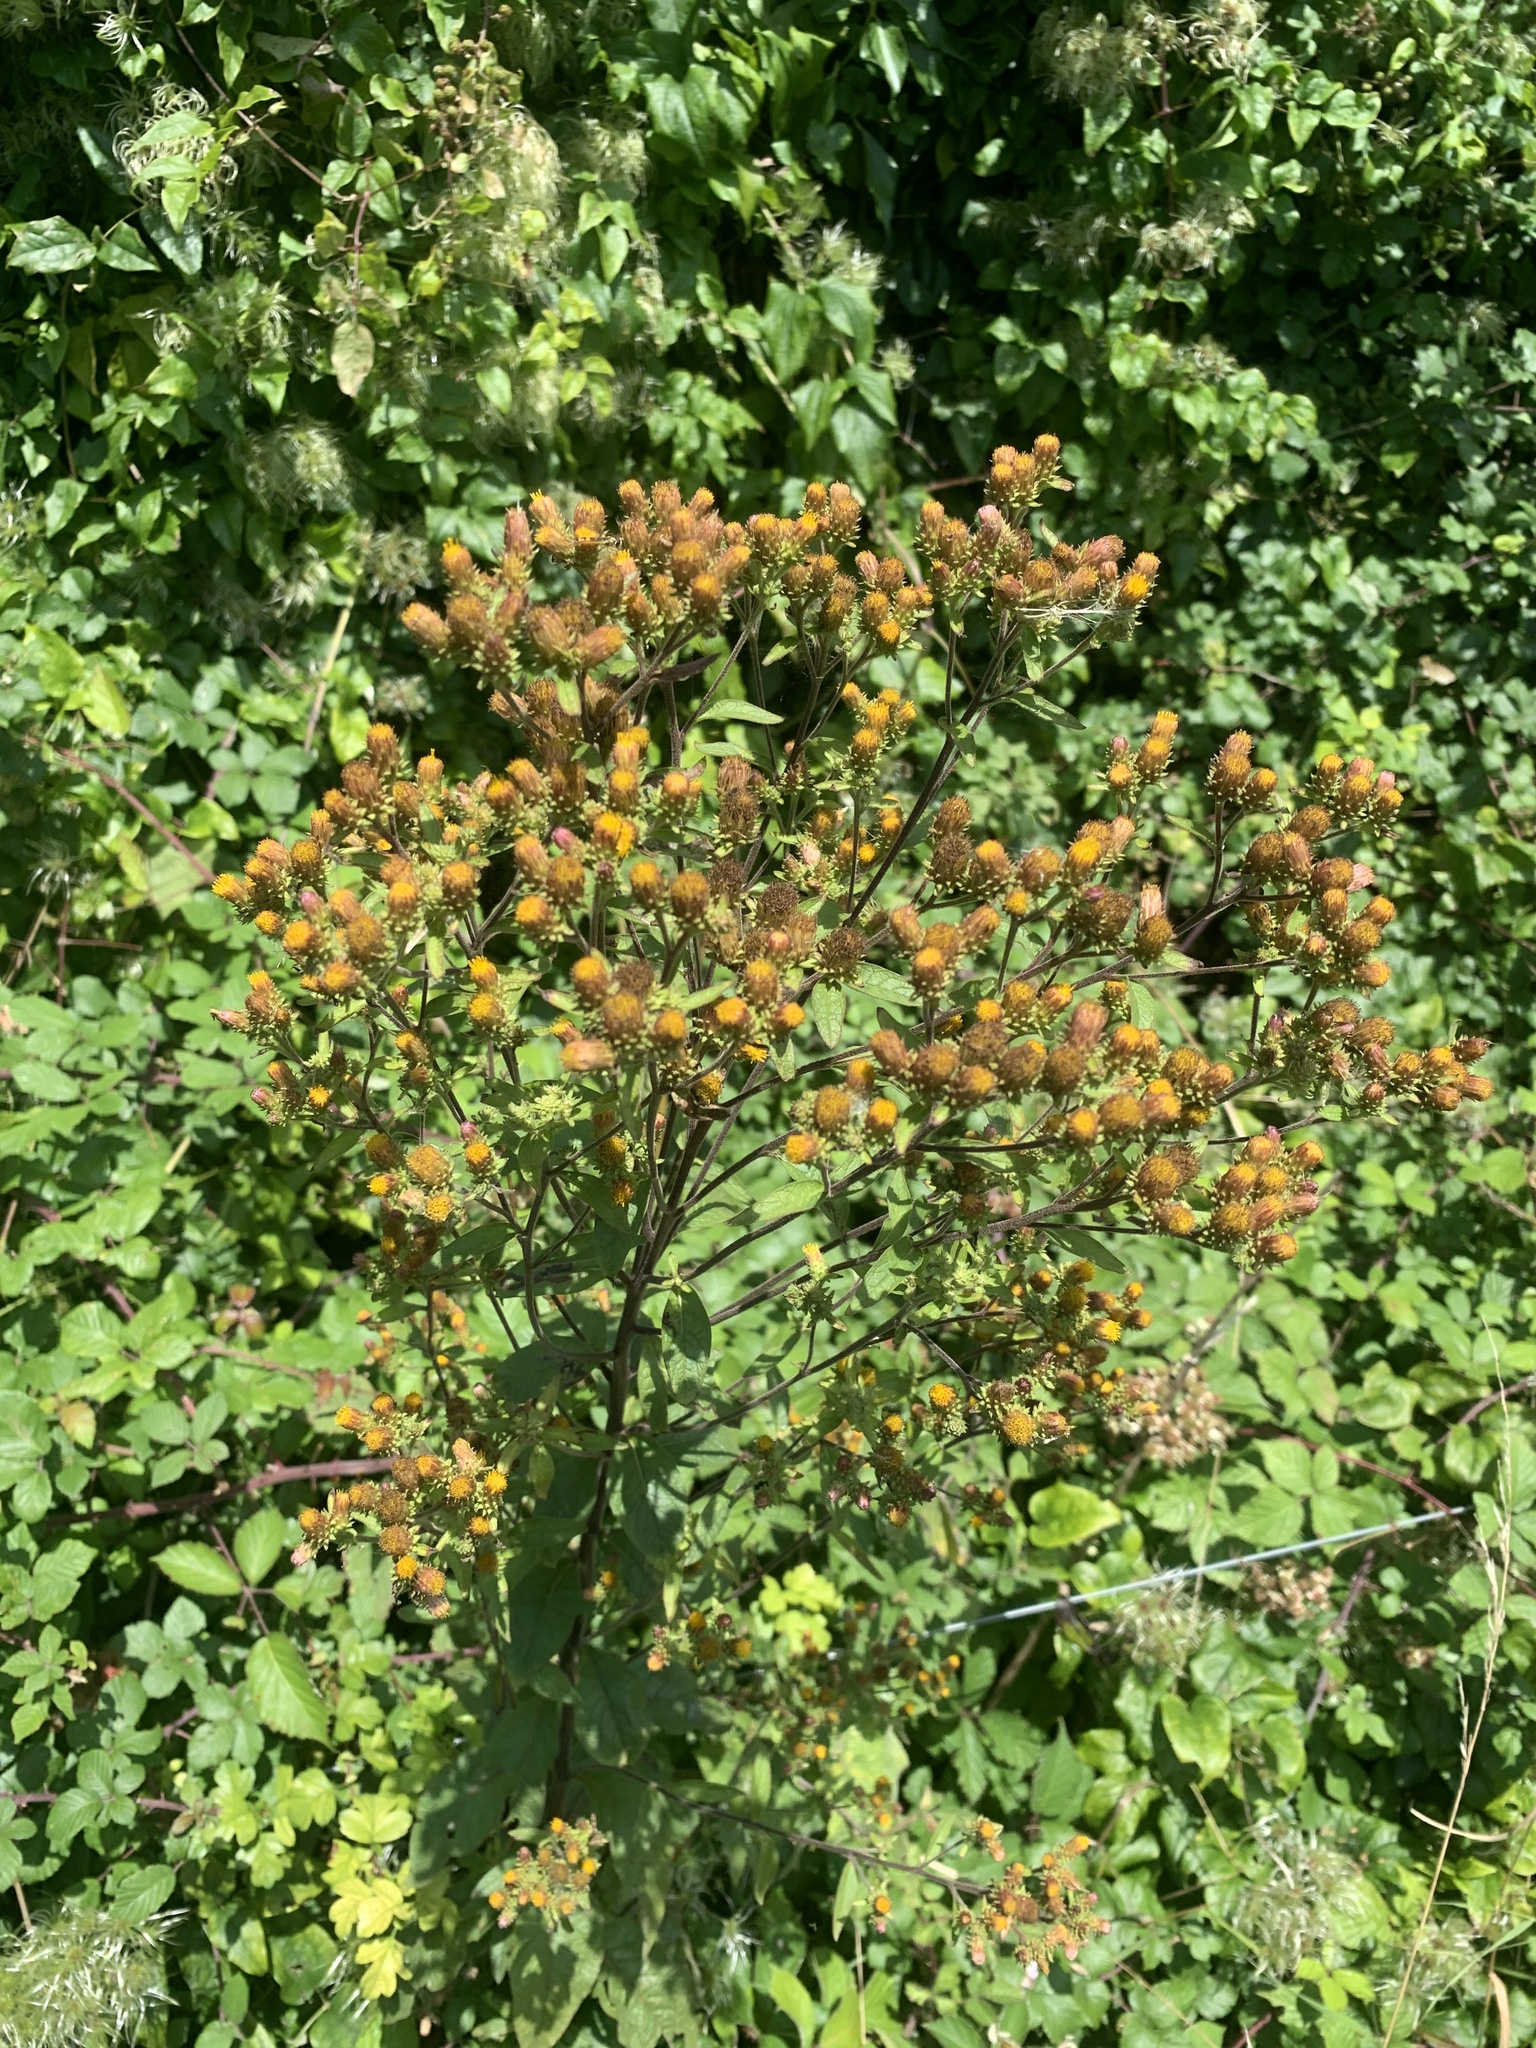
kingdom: Plantae
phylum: Tracheophyta
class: Magnoliopsida
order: Asterales
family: Asteraceae
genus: Pentanema
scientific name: Pentanema squarrosum
